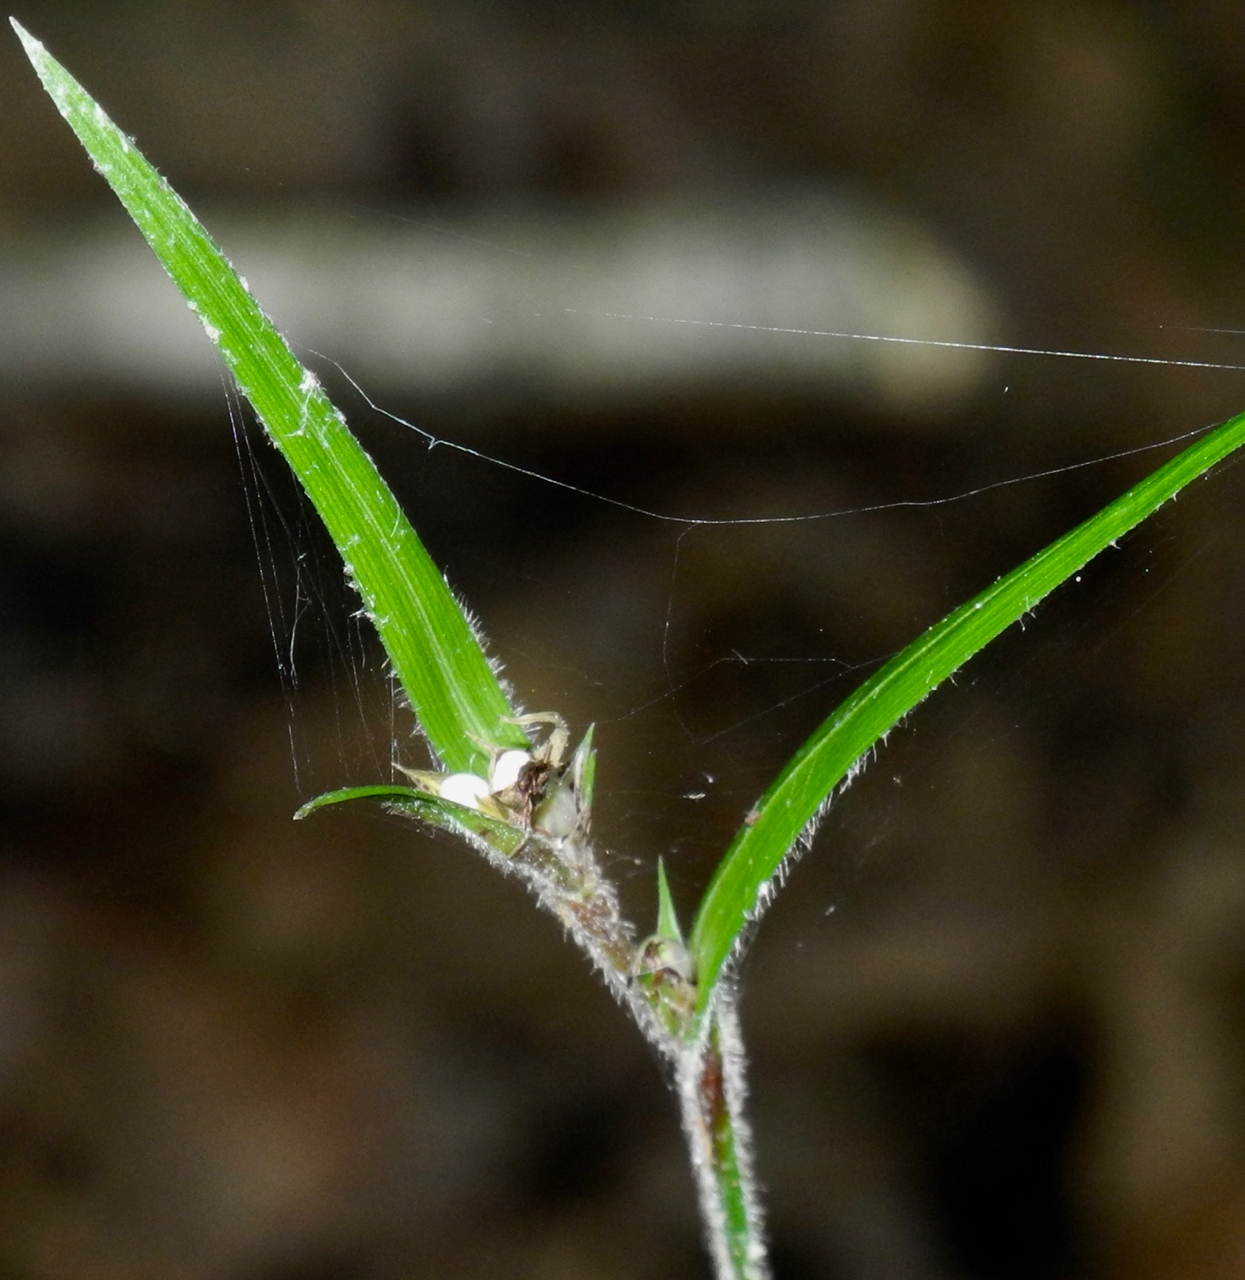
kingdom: Plantae
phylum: Tracheophyta
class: Liliopsida
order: Poales
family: Cyperaceae
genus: Scleria
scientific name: Scleria oligantha
